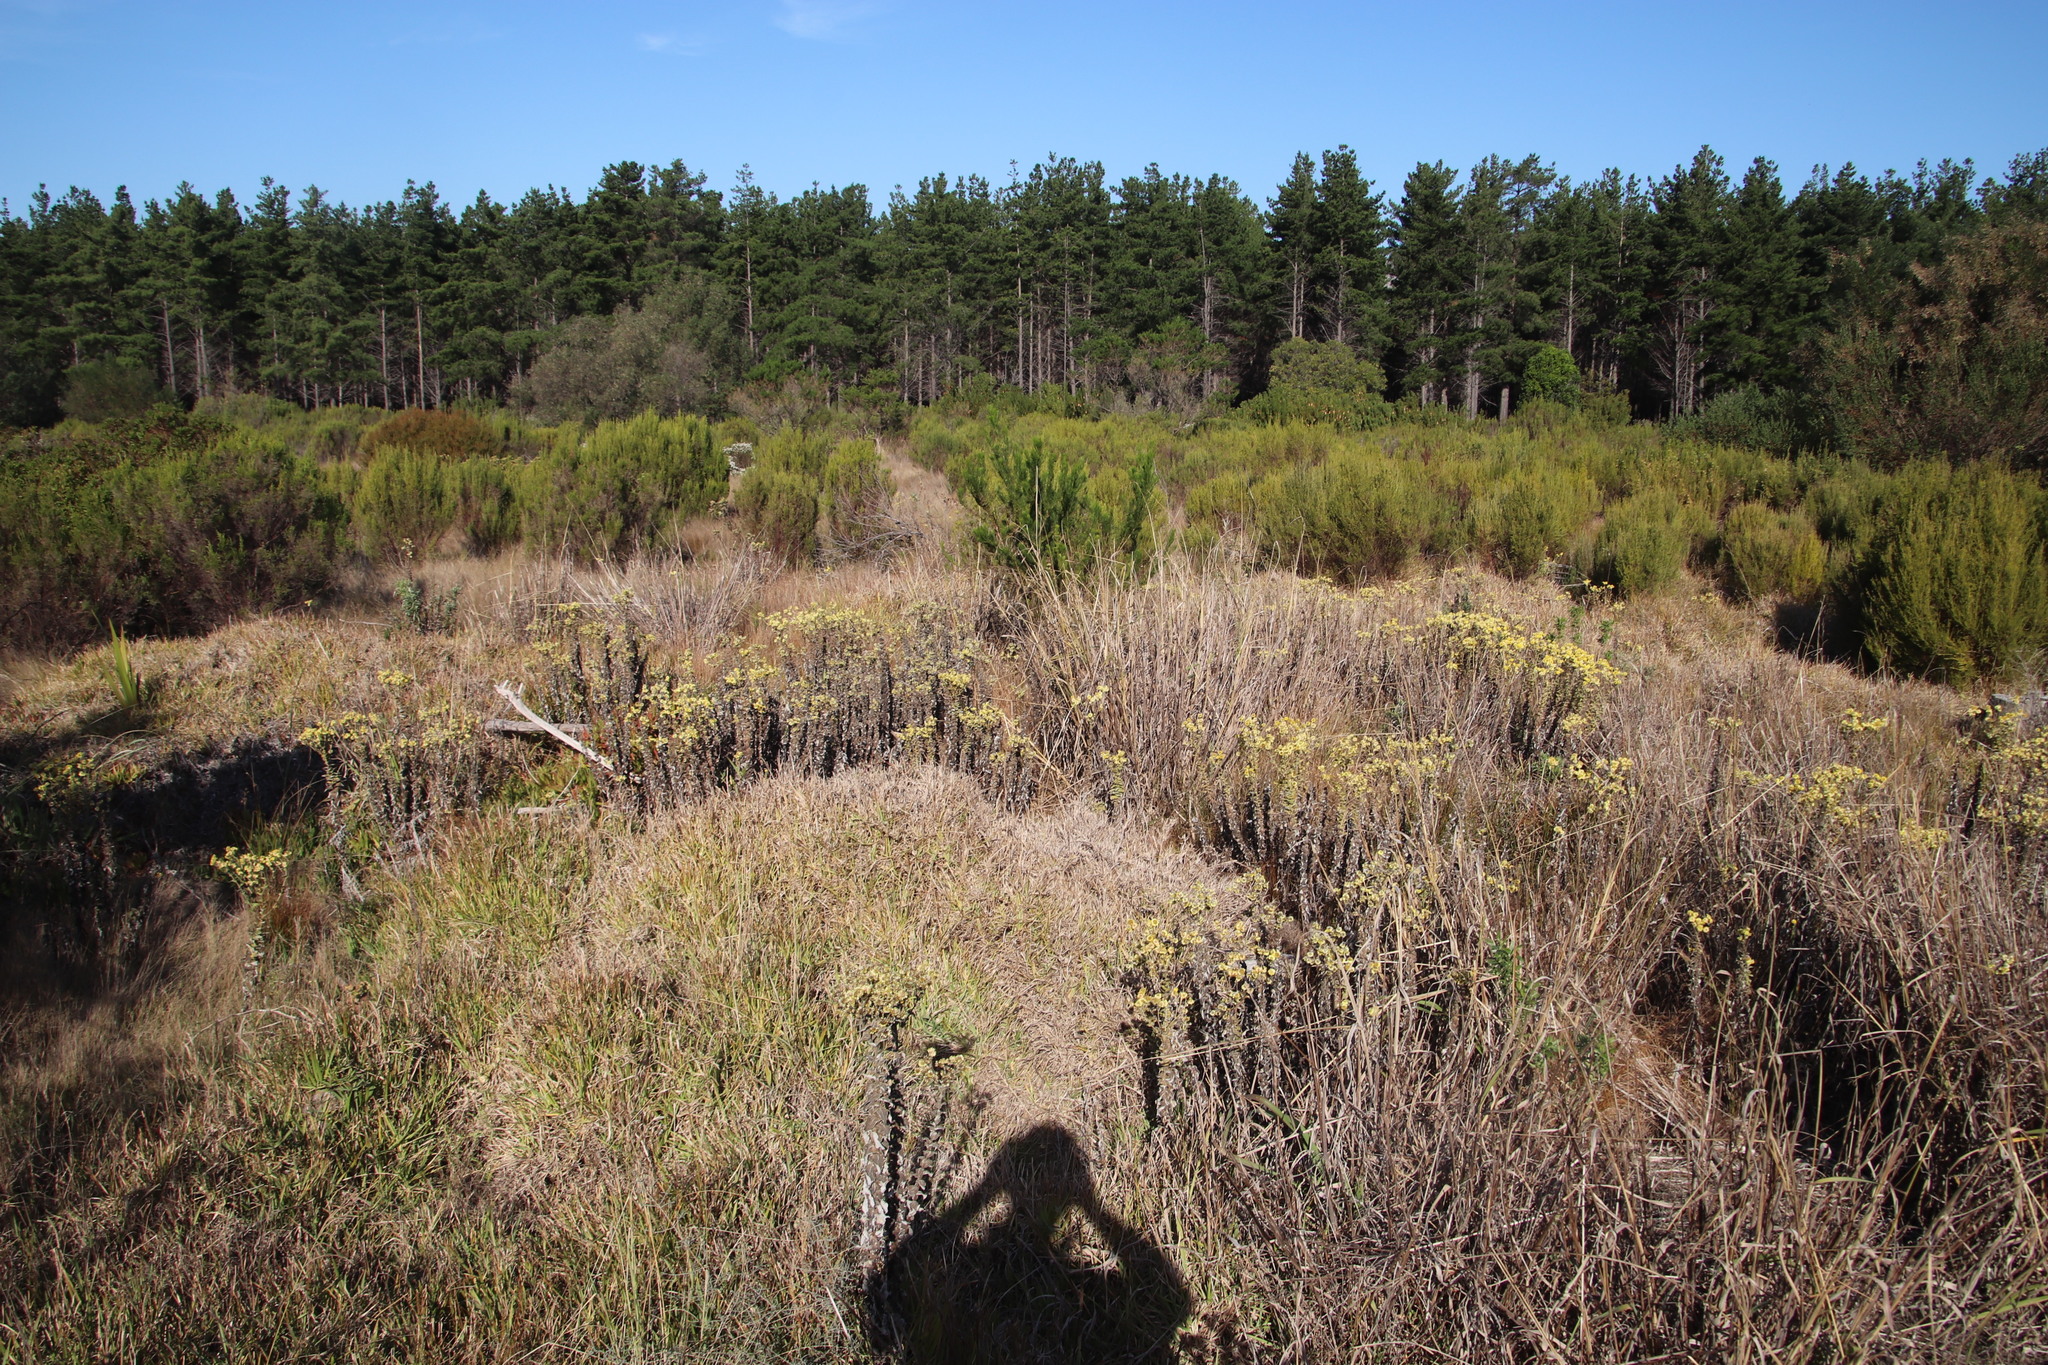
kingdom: Plantae
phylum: Tracheophyta
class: Magnoliopsida
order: Asterales
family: Asteraceae
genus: Helichrysum
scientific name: Helichrysum foetidum
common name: Stinking everlasting
